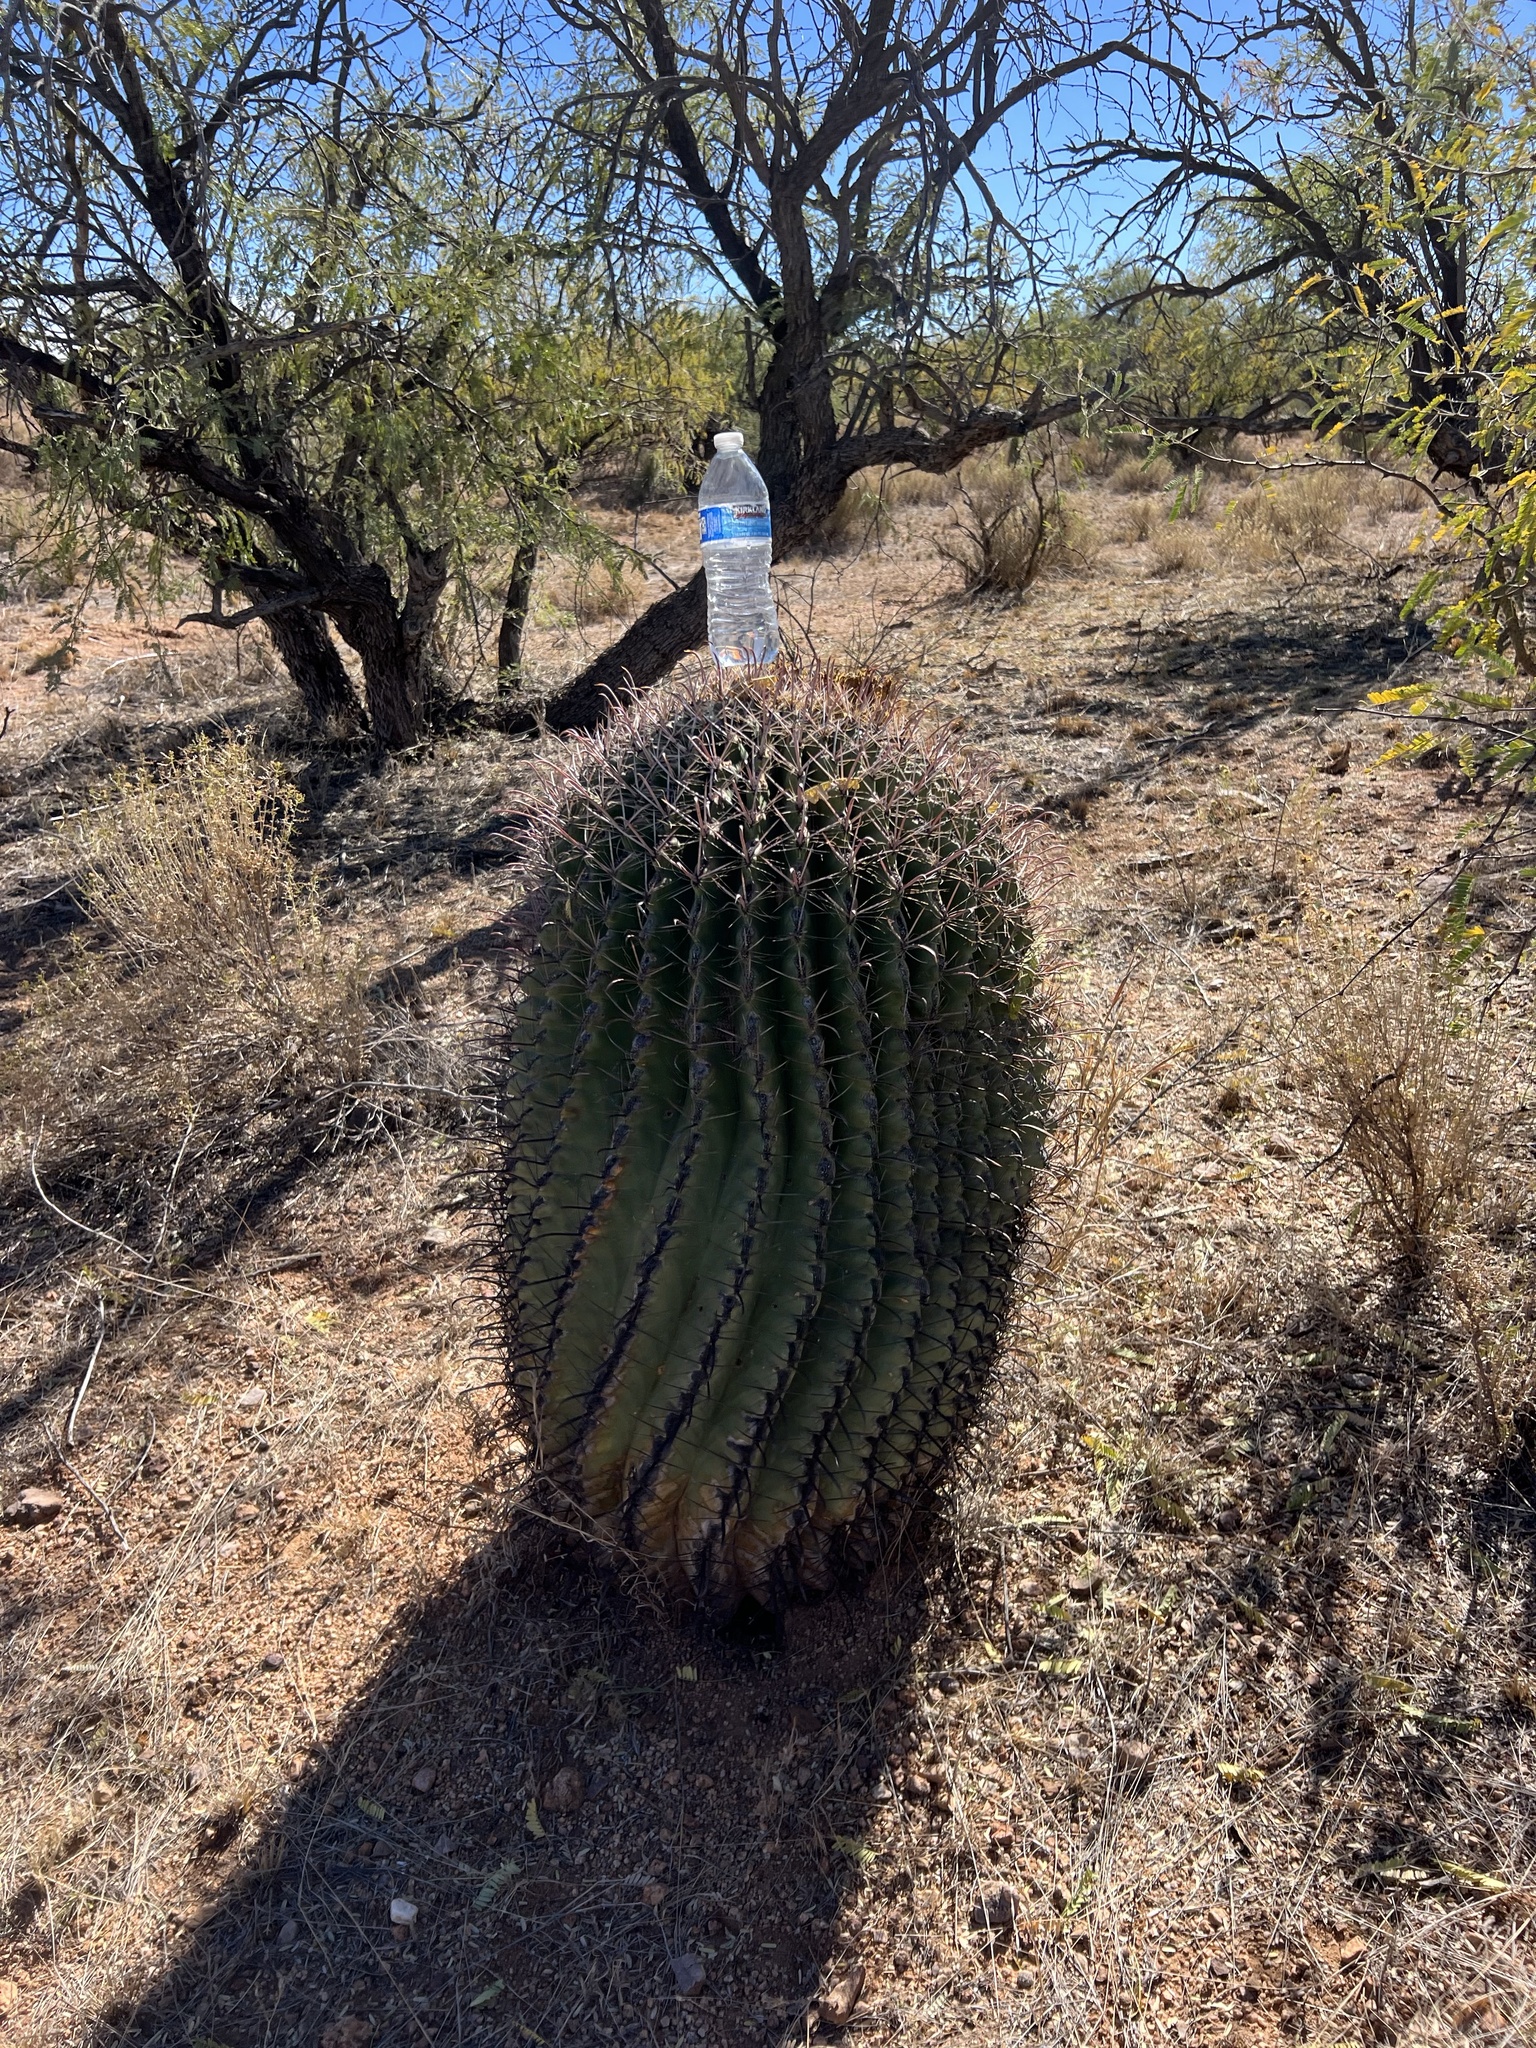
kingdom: Plantae
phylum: Tracheophyta
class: Magnoliopsida
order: Caryophyllales
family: Cactaceae
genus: Ferocactus
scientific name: Ferocactus wislizeni
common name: Candy barrel cactus
